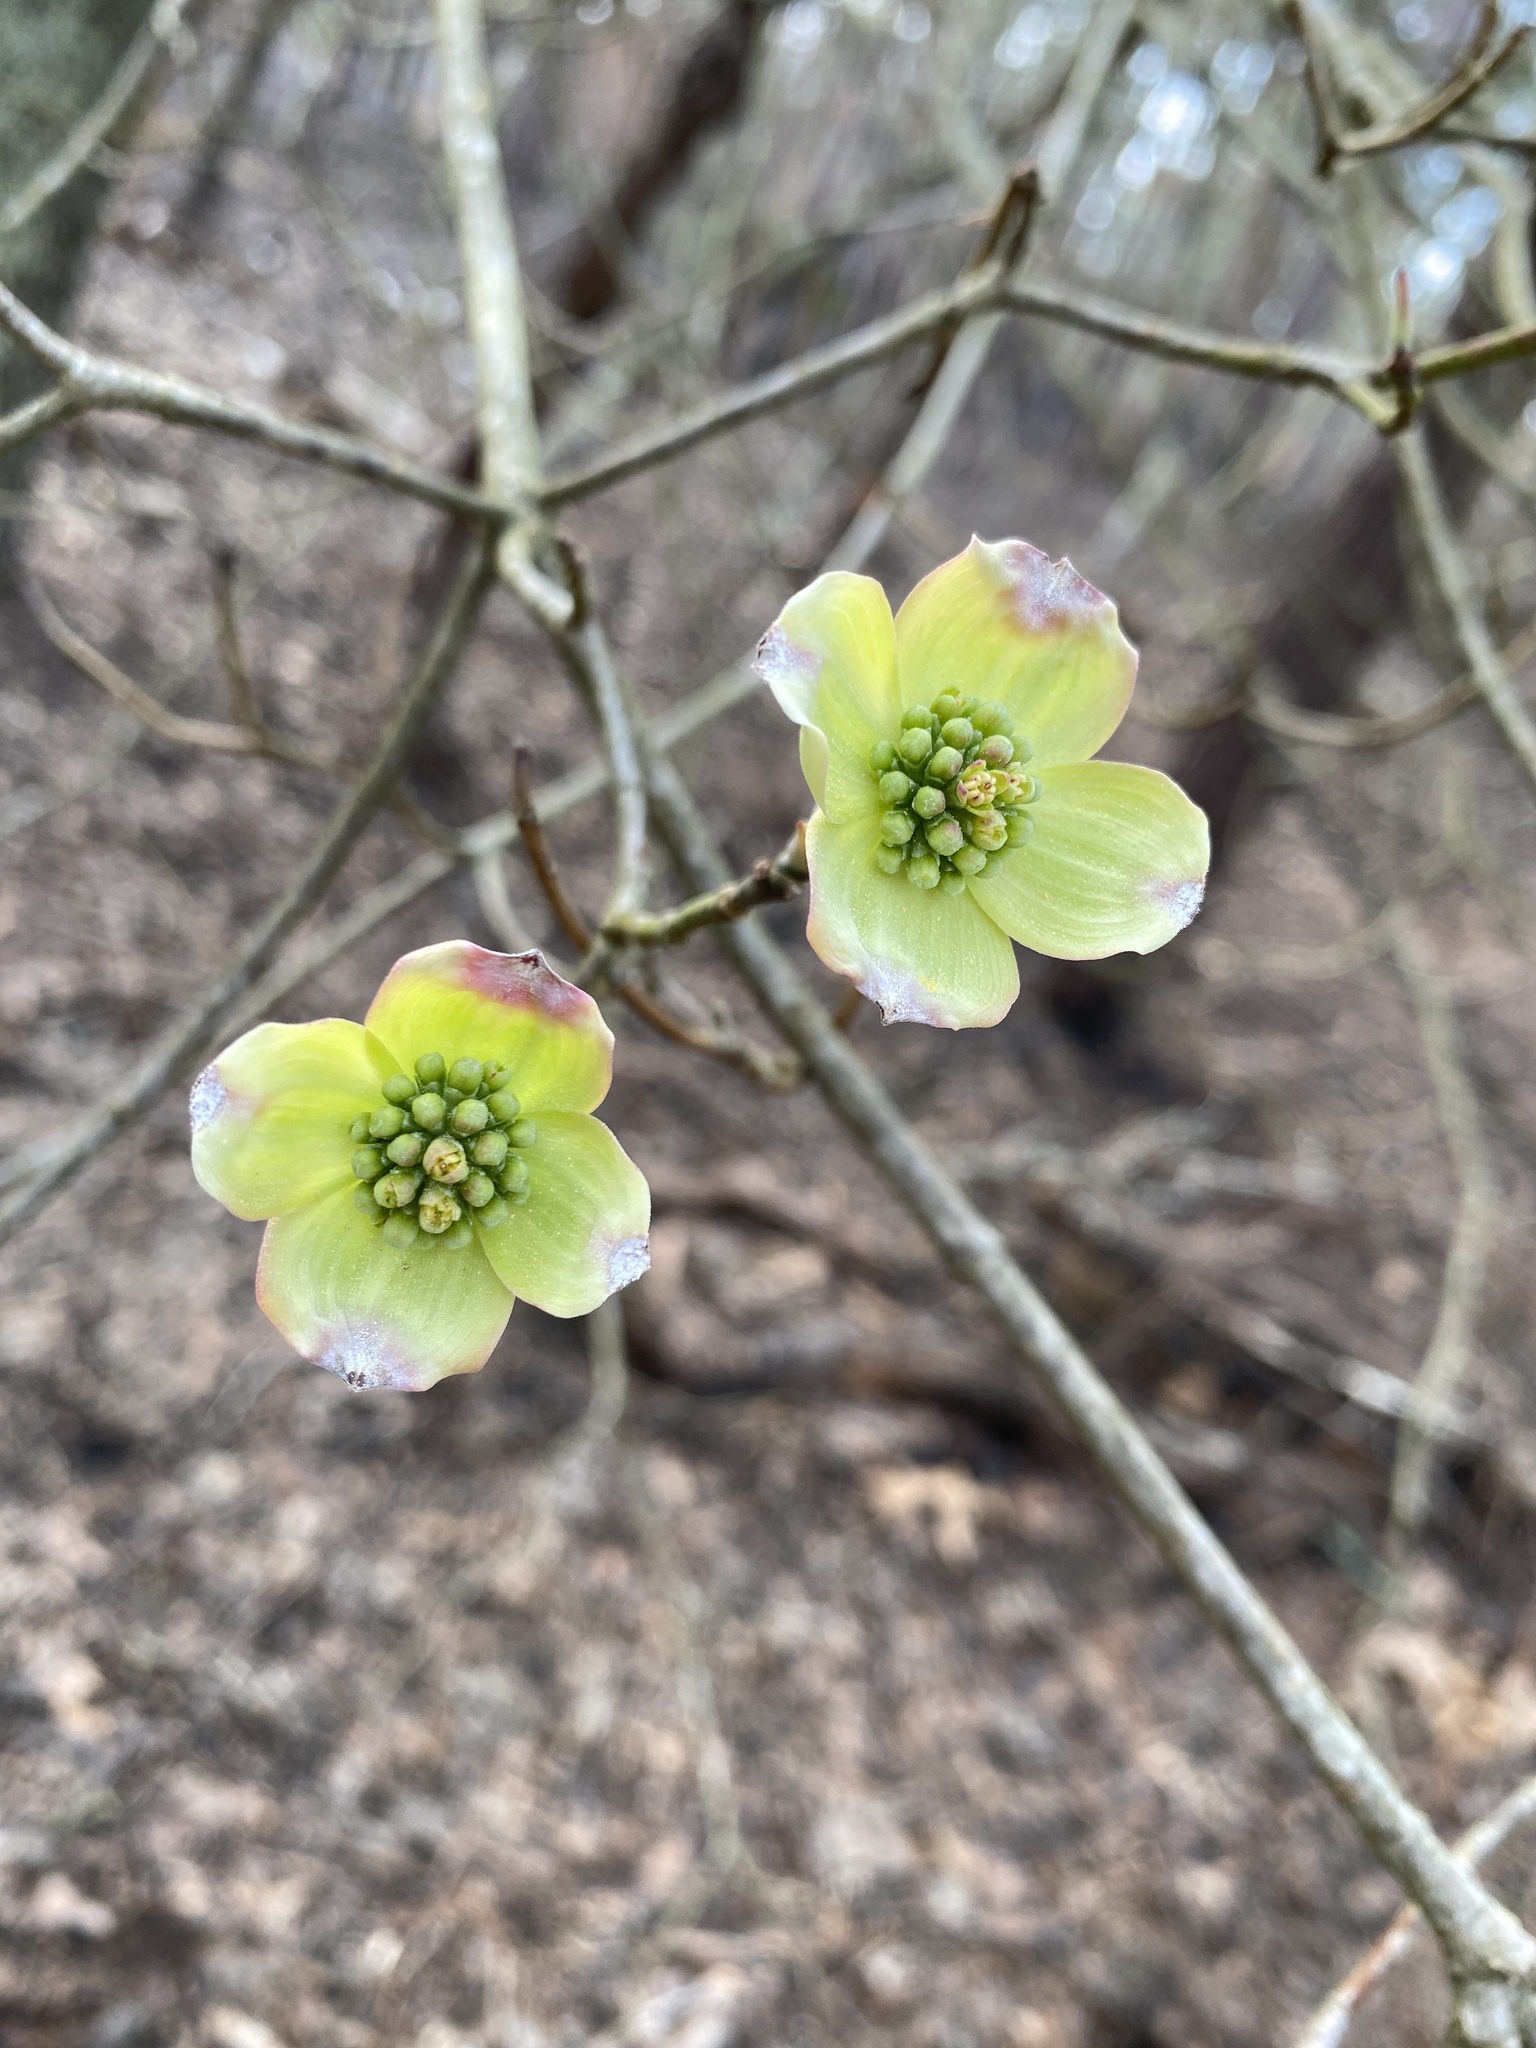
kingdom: Plantae
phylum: Tracheophyta
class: Magnoliopsida
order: Cornales
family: Cornaceae
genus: Cornus
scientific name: Cornus florida
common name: Flowering dogwood
